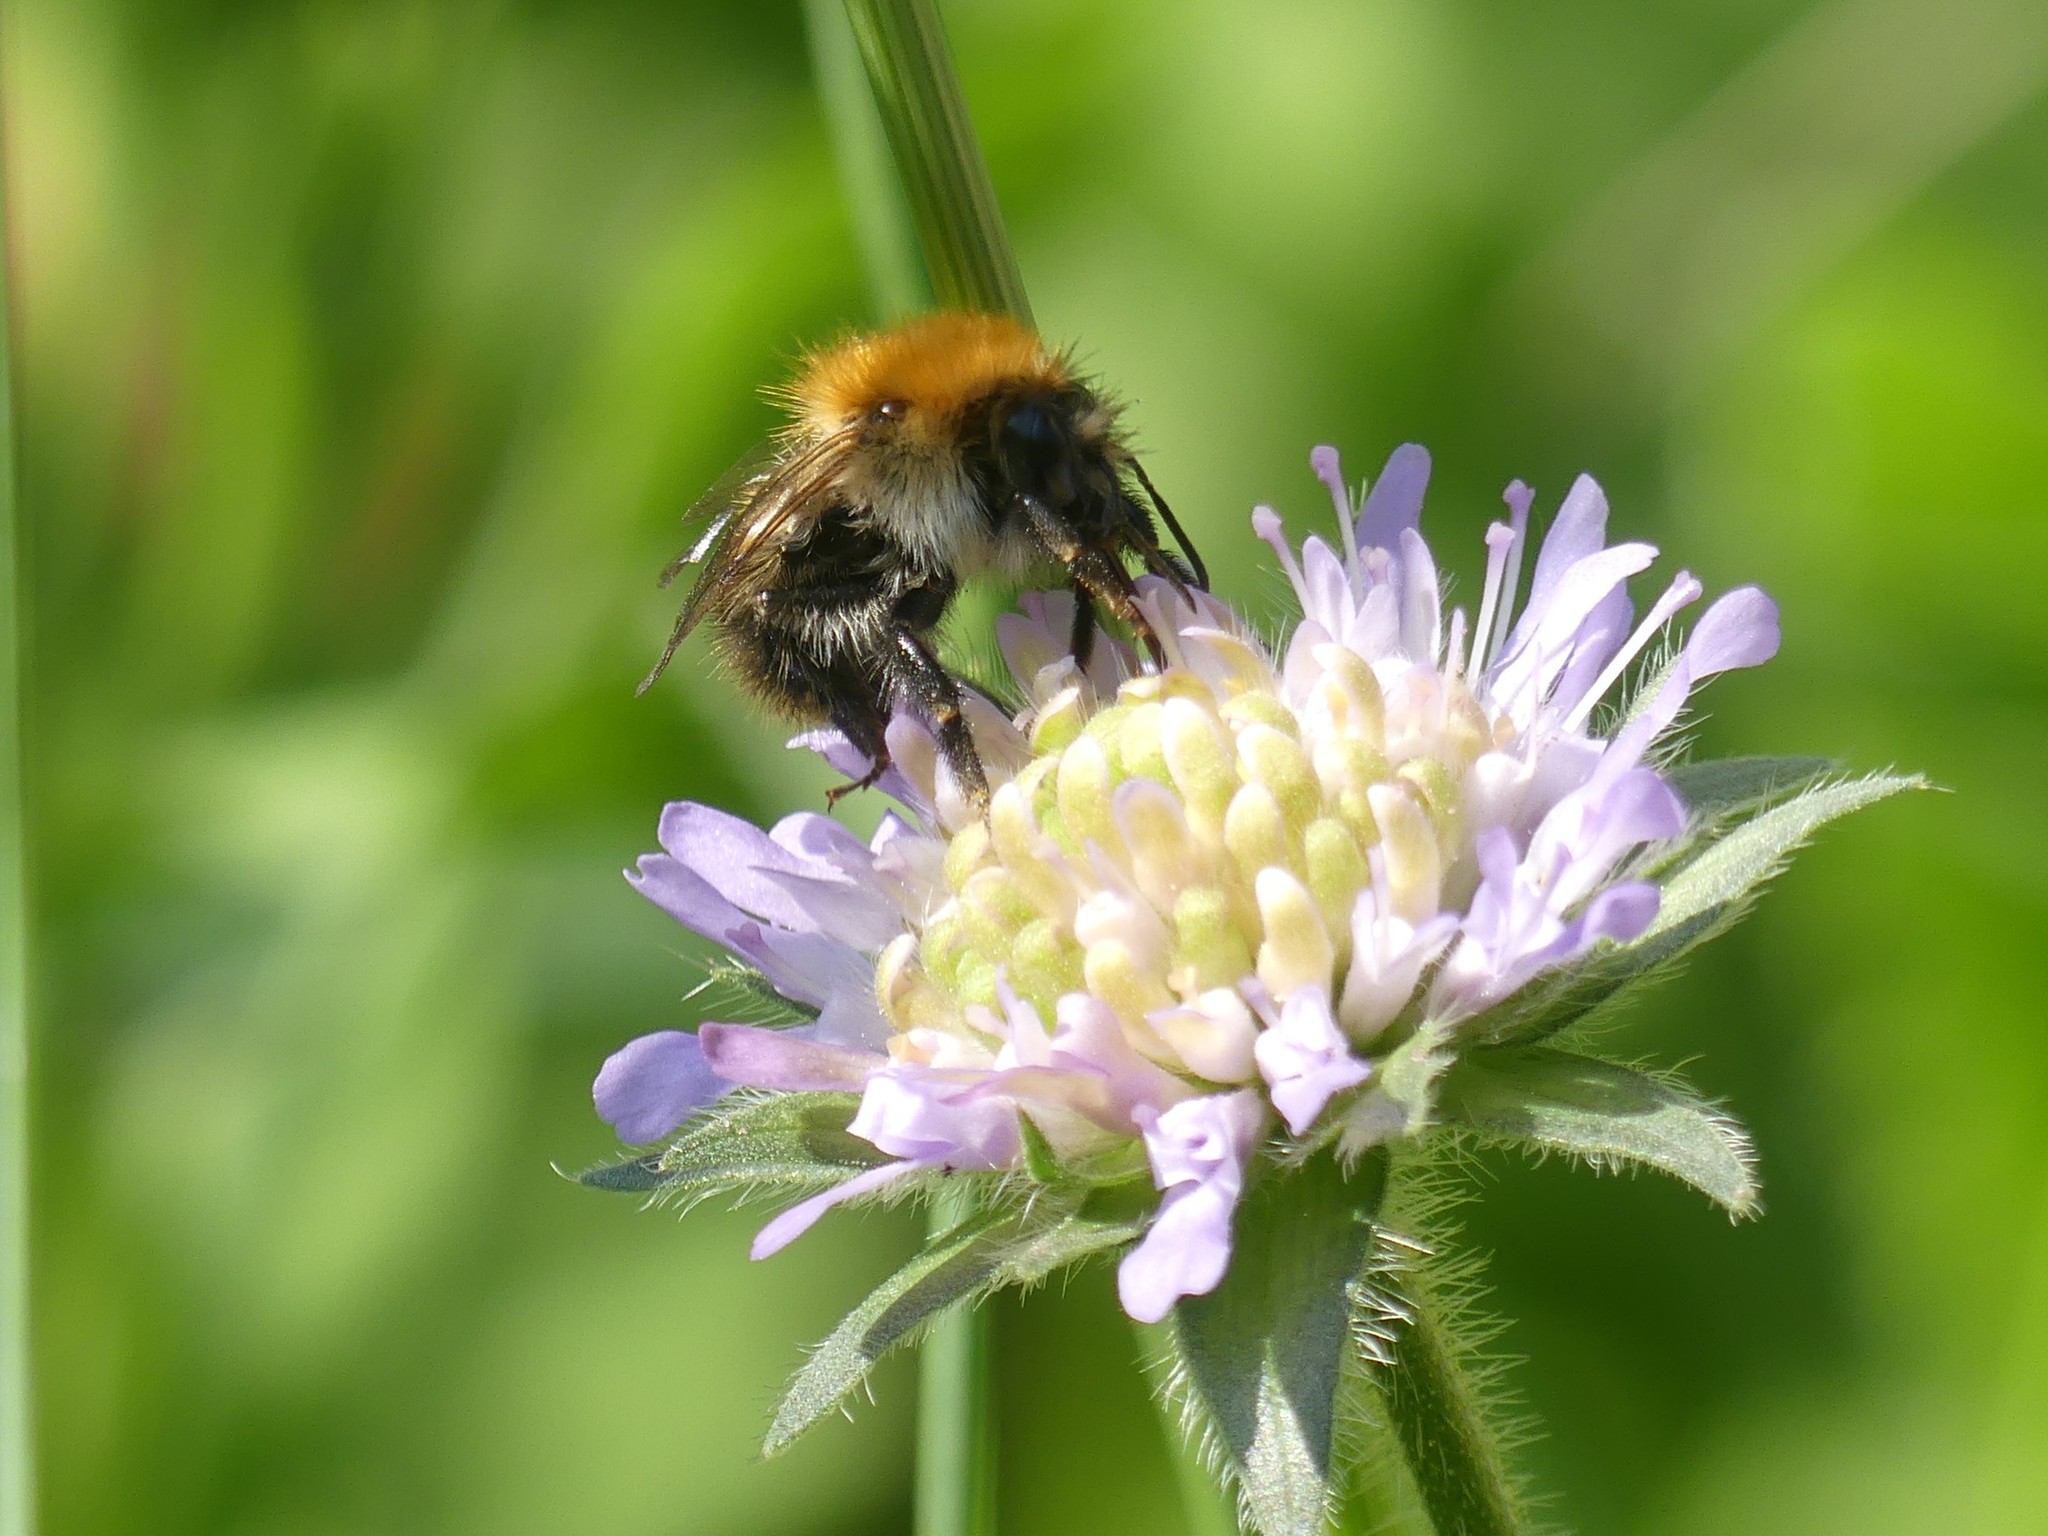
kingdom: Animalia
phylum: Arthropoda
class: Insecta
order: Hymenoptera
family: Apidae
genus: Bombus
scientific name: Bombus pascuorum
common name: Common carder bee
